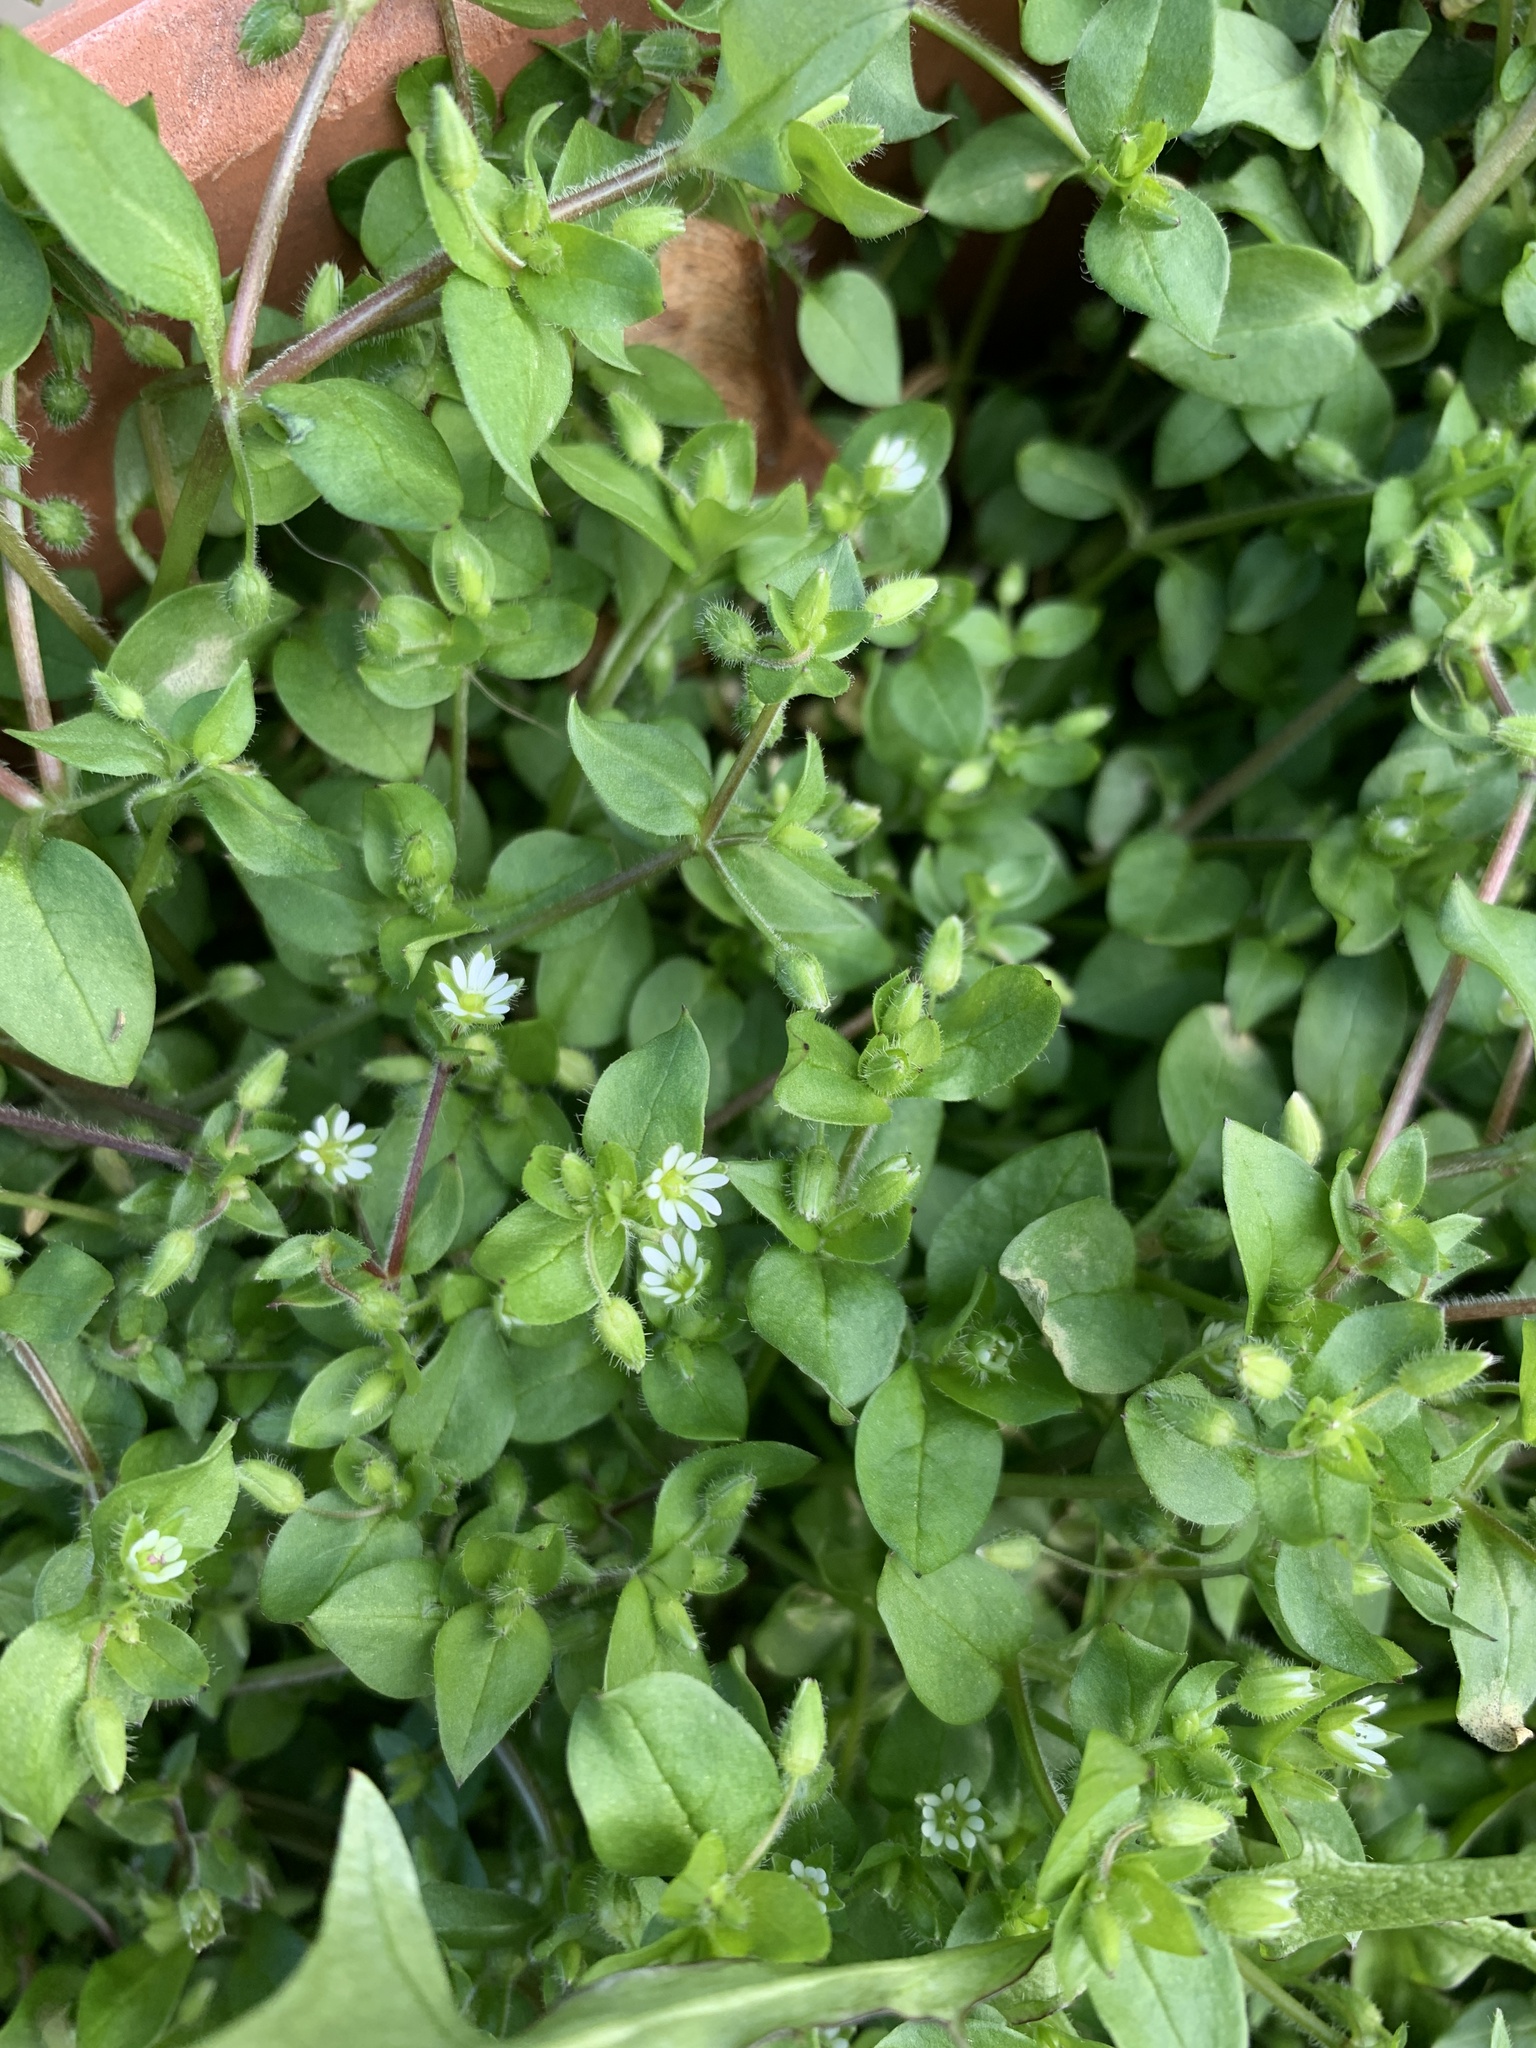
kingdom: Plantae
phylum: Tracheophyta
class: Magnoliopsida
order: Caryophyllales
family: Caryophyllaceae
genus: Stellaria
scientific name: Stellaria media
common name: Common chickweed
